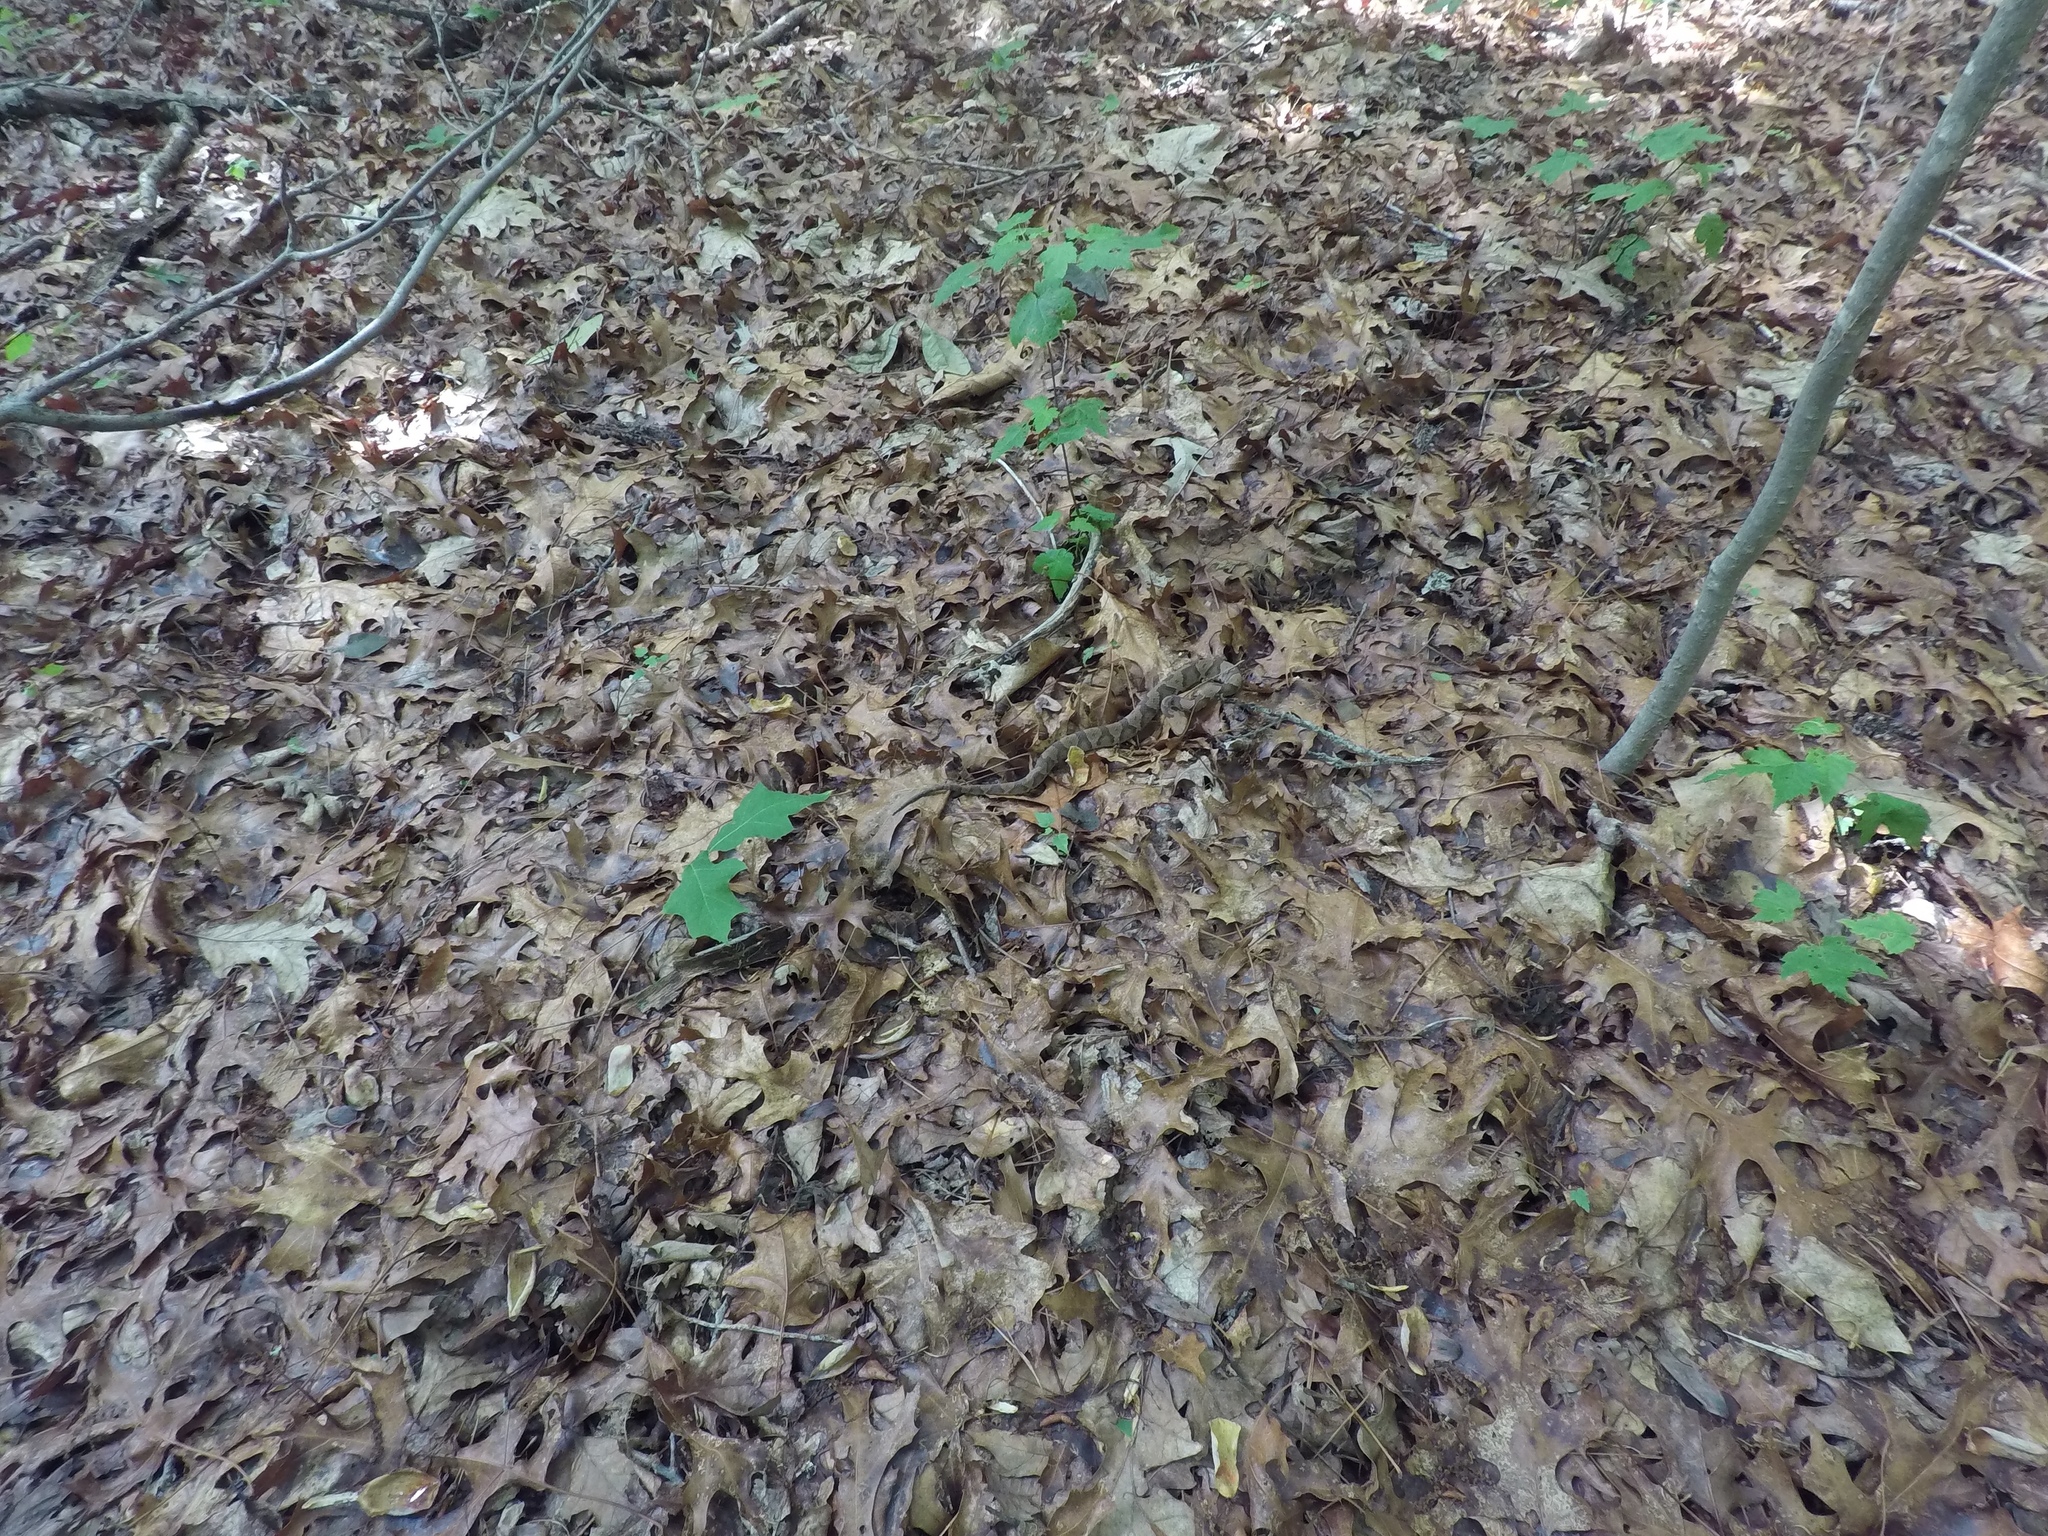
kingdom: Animalia
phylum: Chordata
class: Squamata
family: Viperidae
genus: Agkistrodon
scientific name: Agkistrodon contortrix
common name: Northern copperhead
